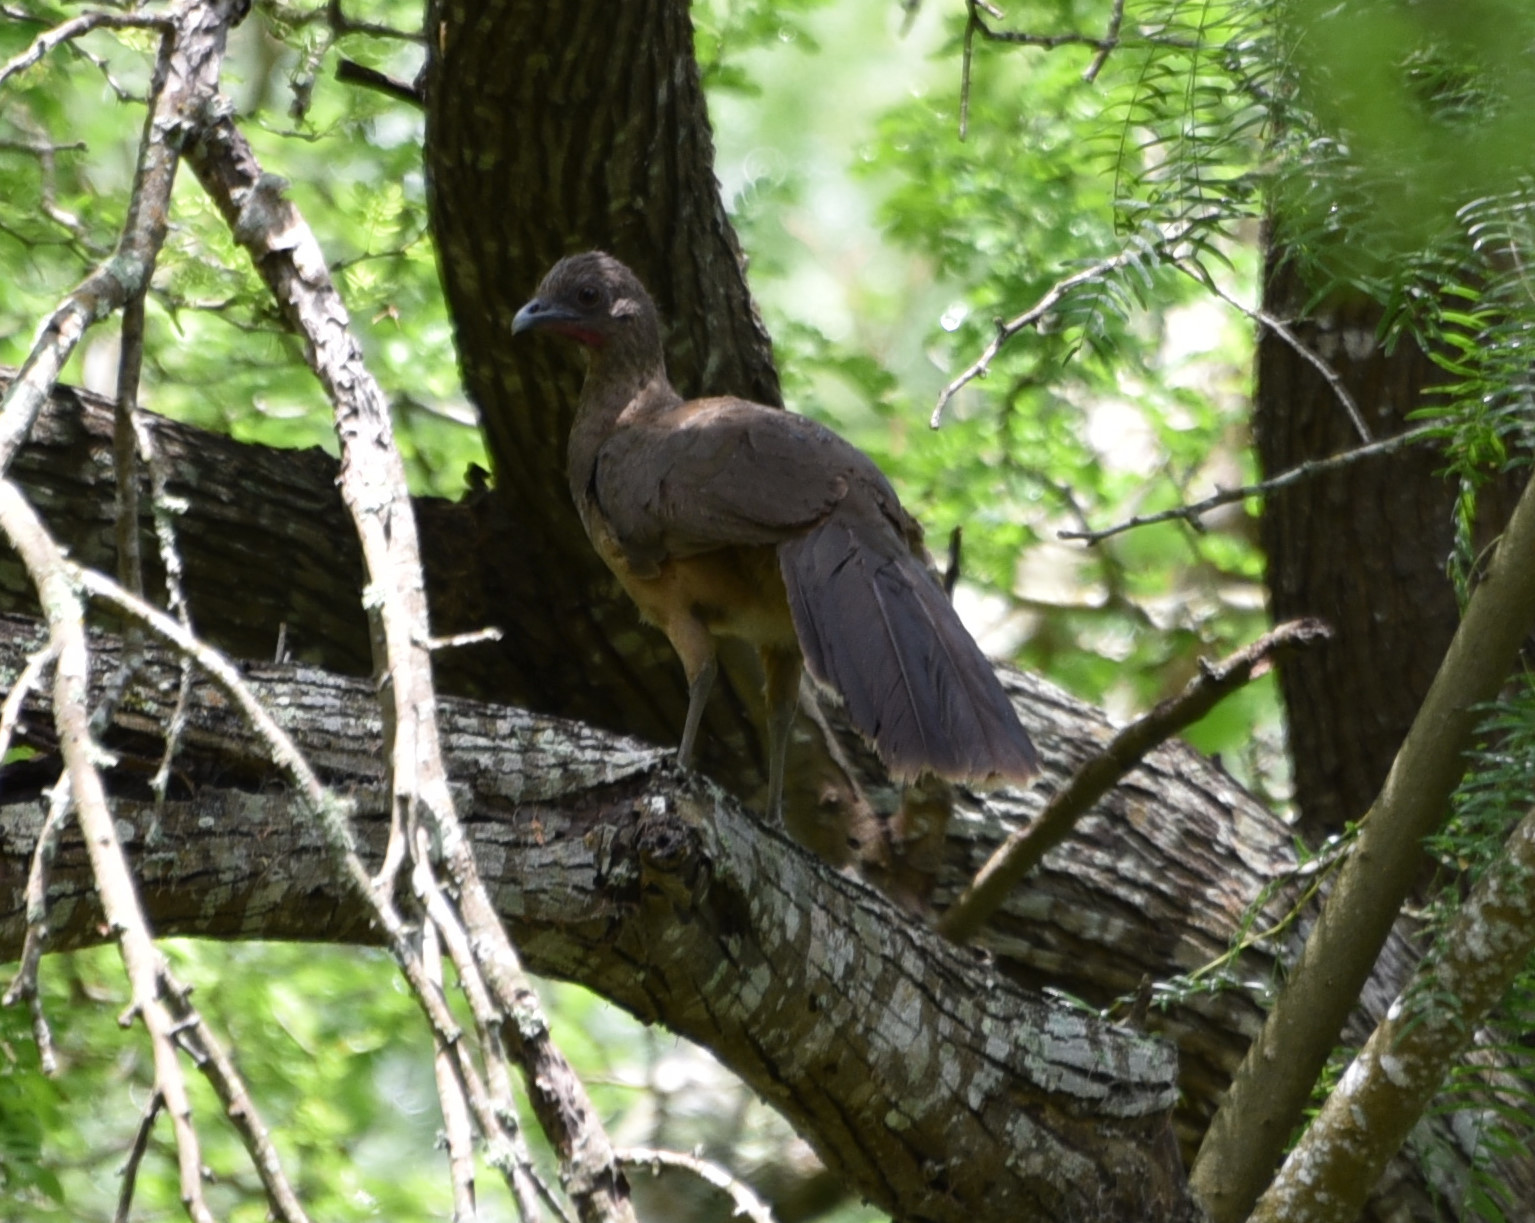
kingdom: Animalia
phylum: Chordata
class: Aves
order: Galliformes
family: Cracidae
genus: Ortalis
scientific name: Ortalis vetula
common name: Plain chachalaca
